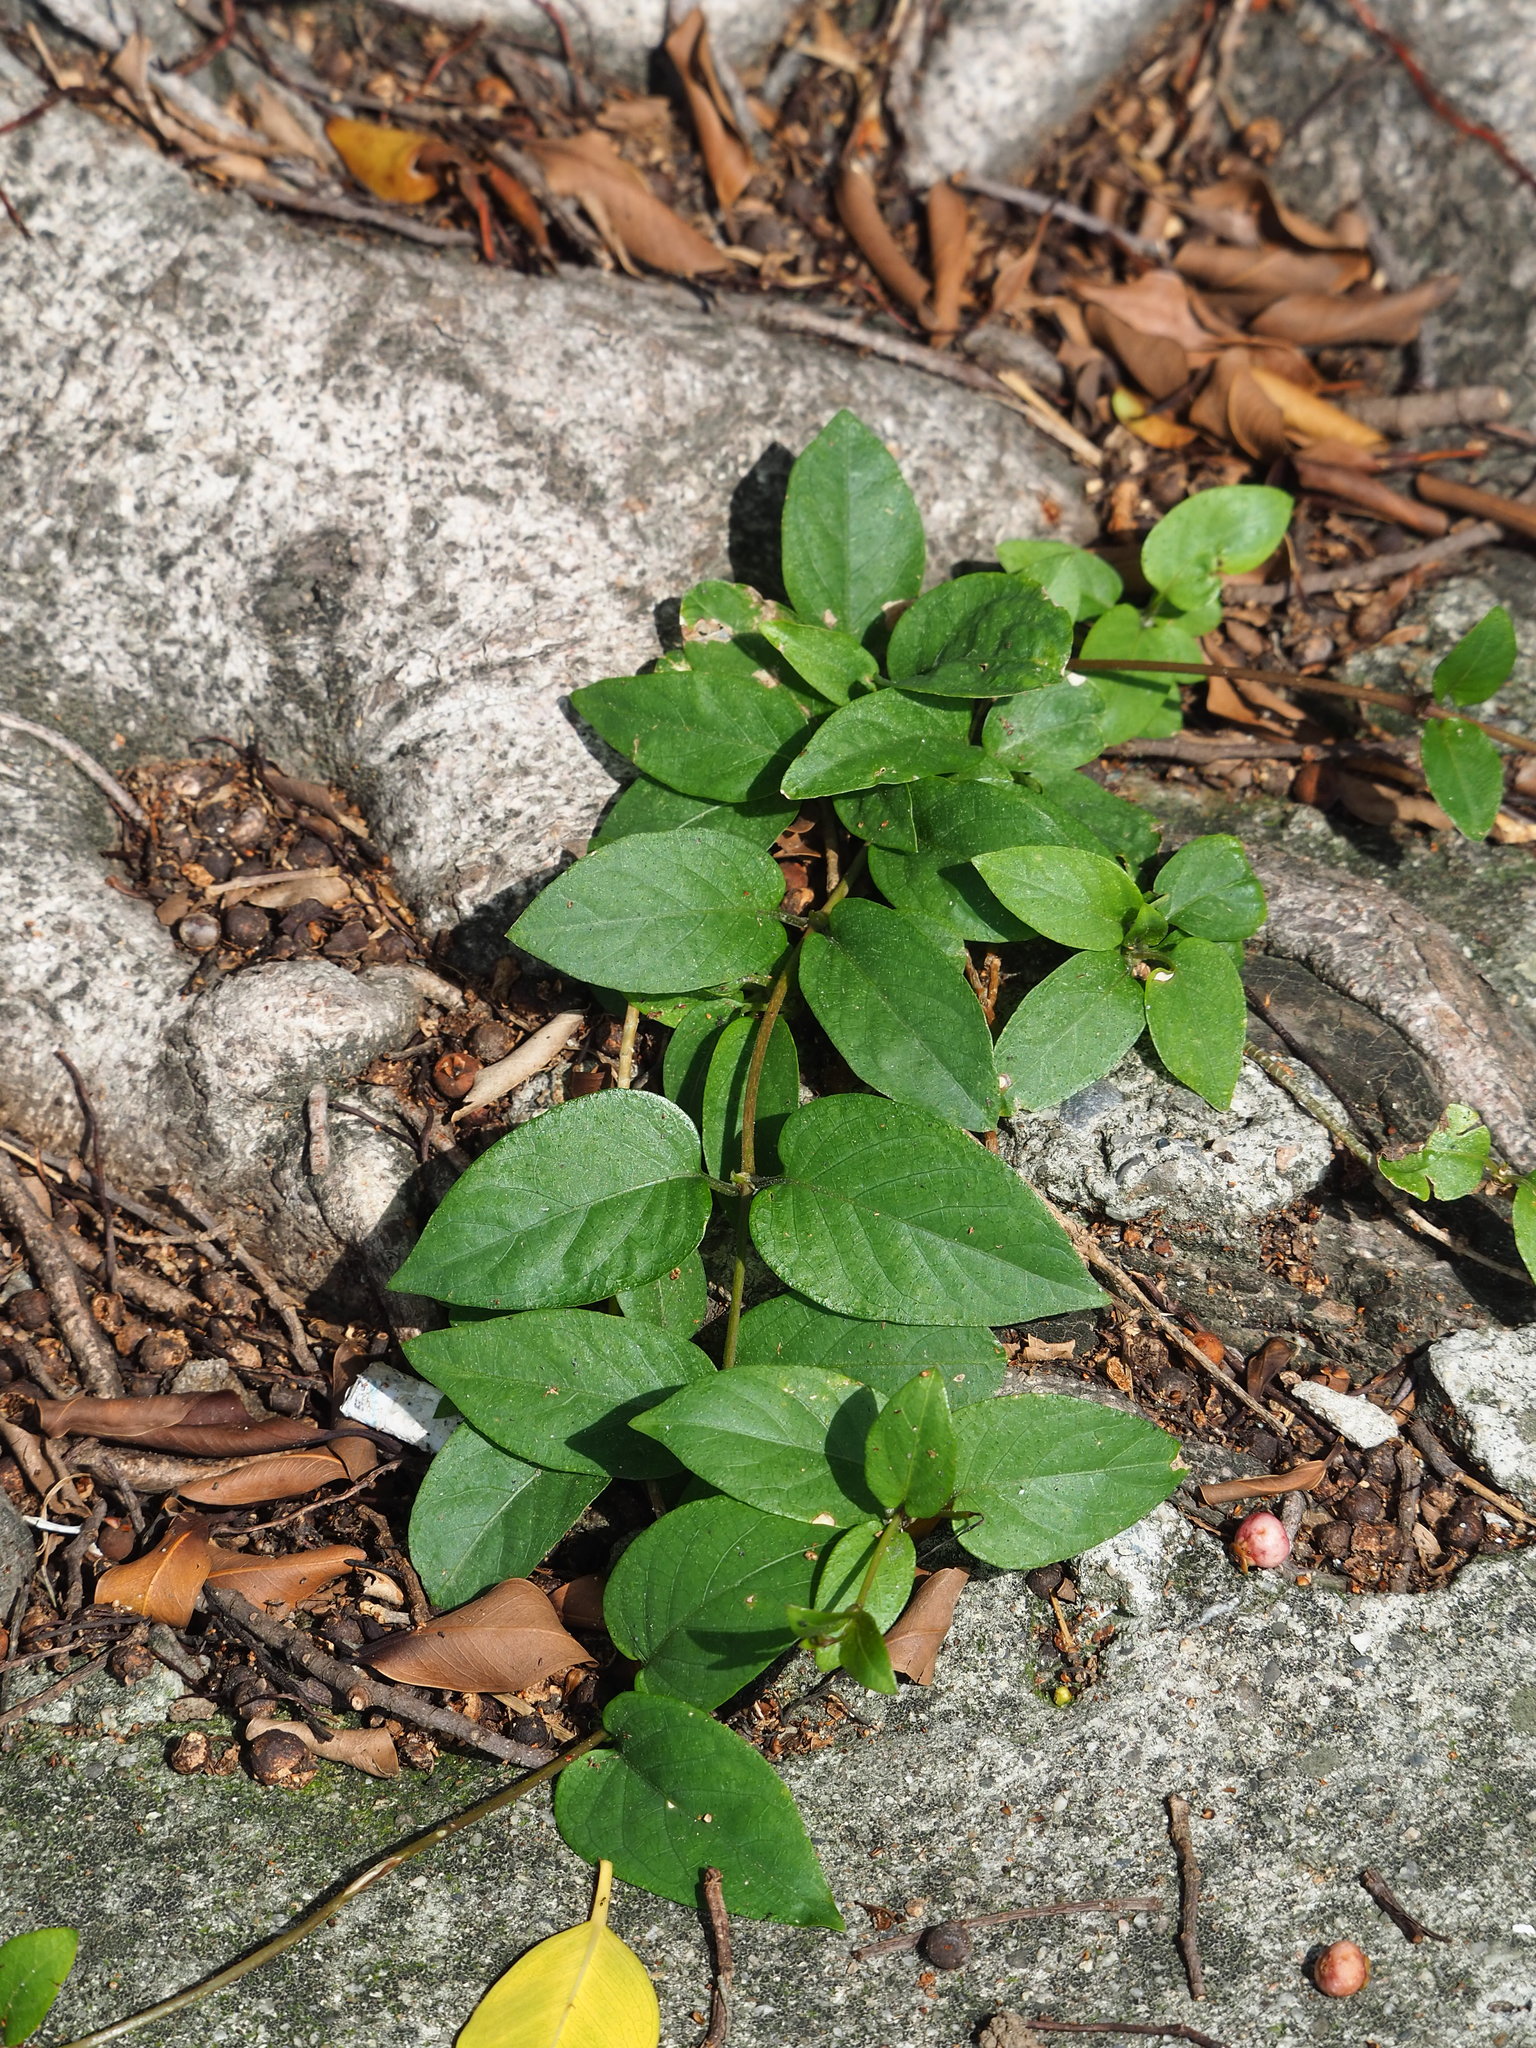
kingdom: Plantae
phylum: Tracheophyta
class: Magnoliopsida
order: Gentianales
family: Rubiaceae
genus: Paederia
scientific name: Paederia foetida
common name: Stinkvine
